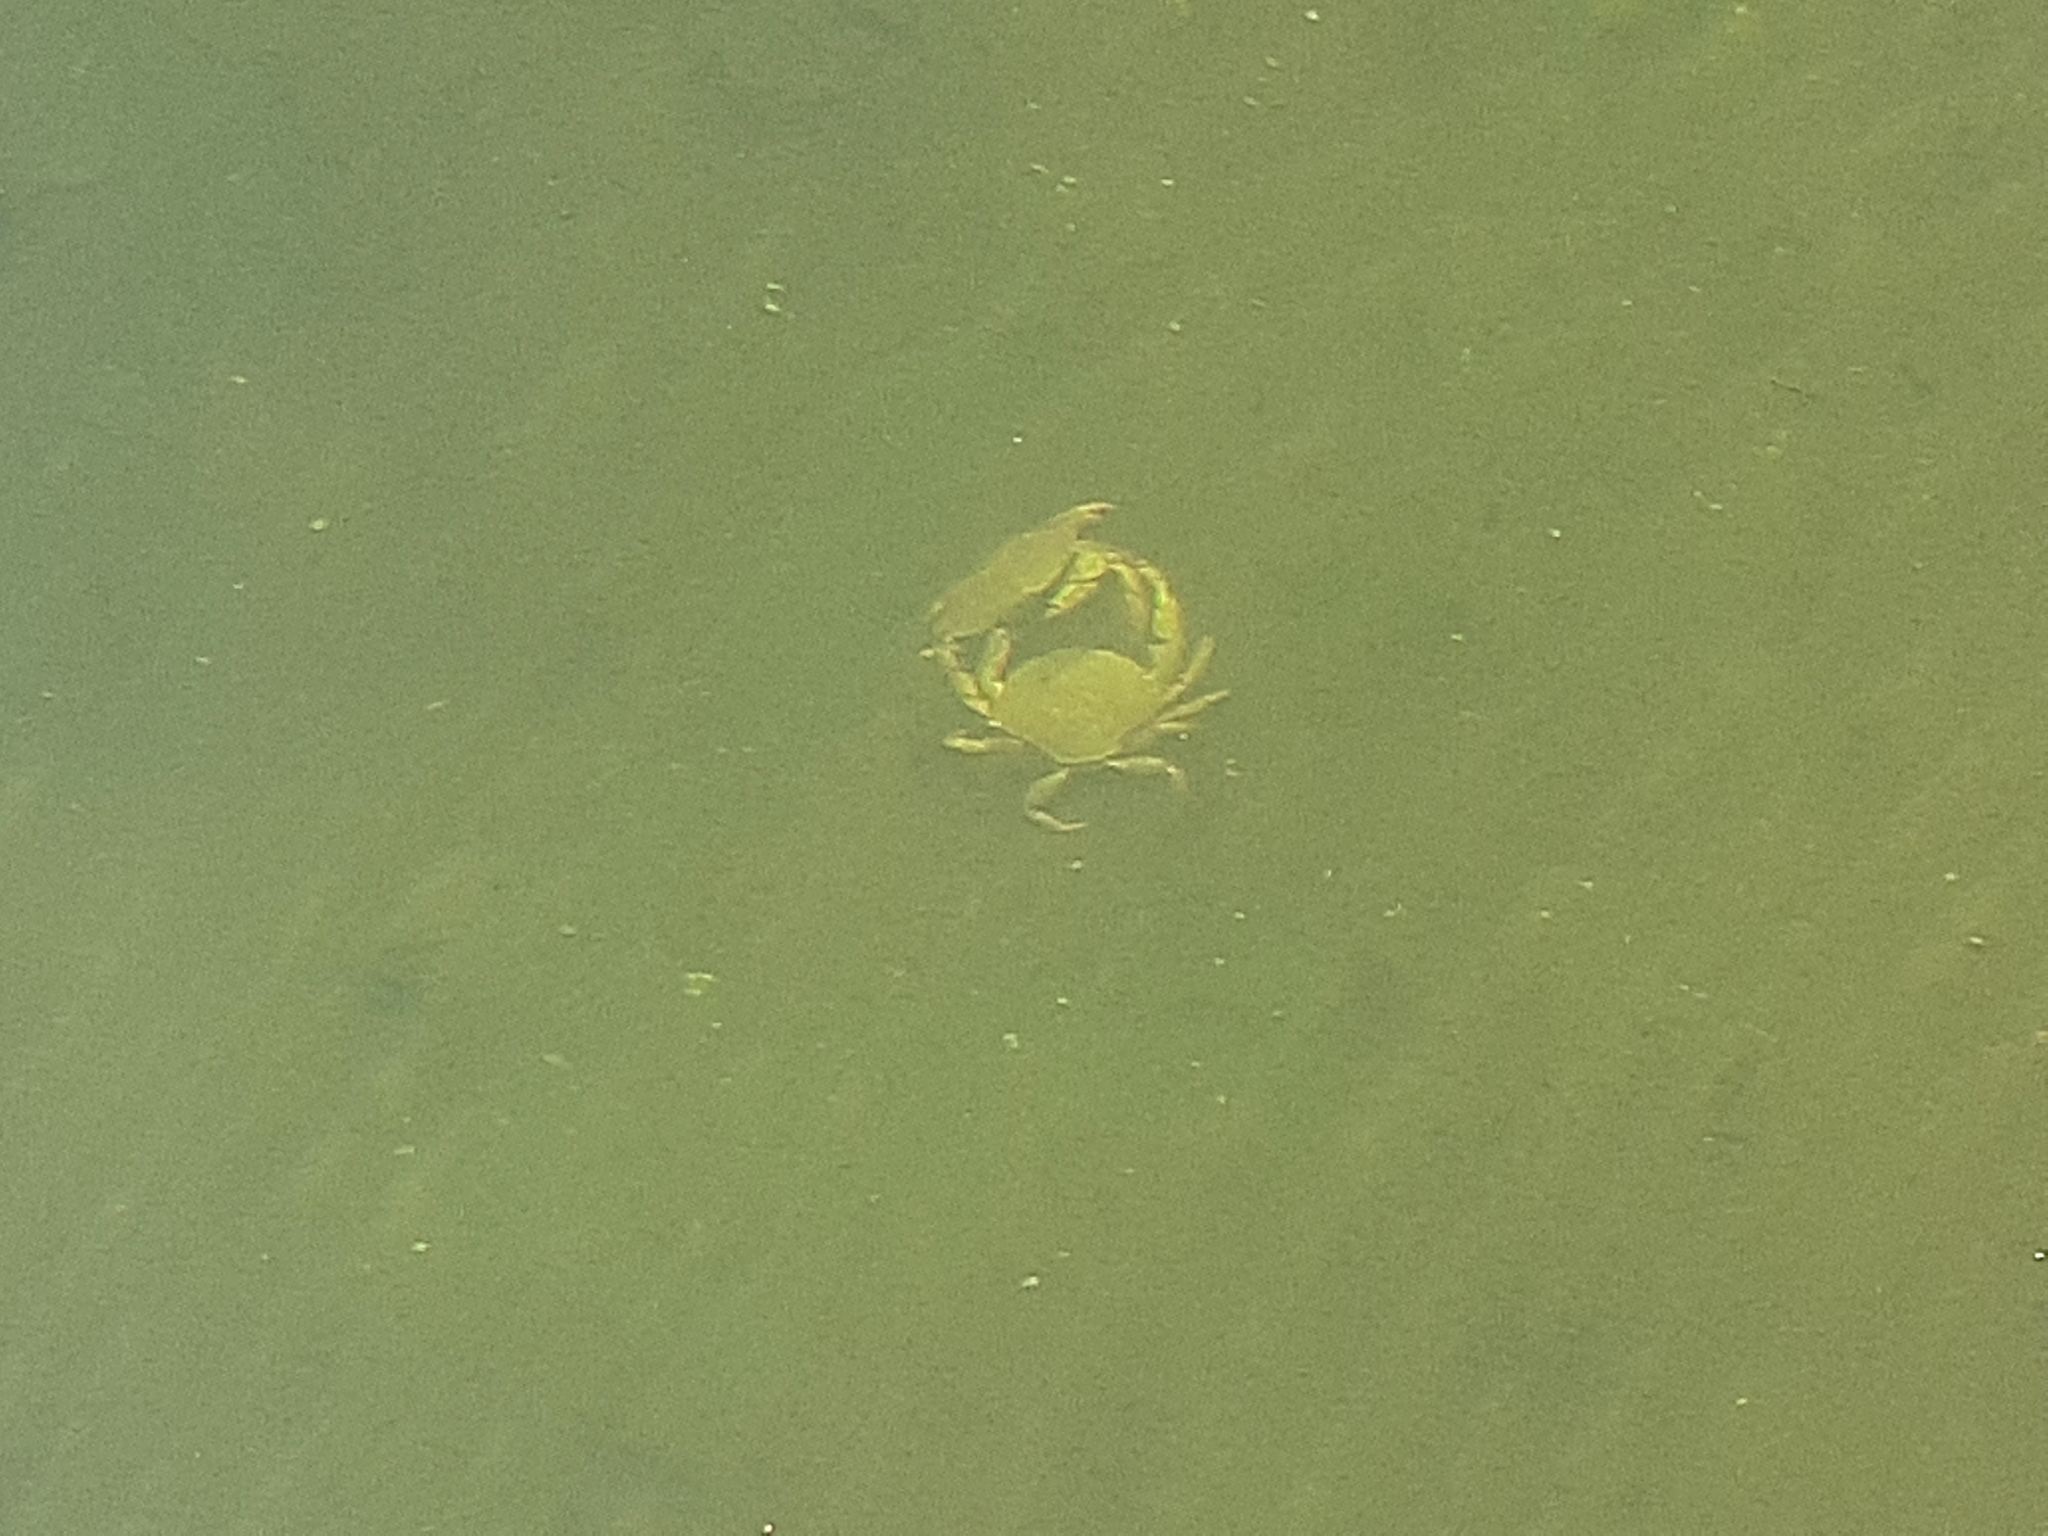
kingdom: Animalia
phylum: Arthropoda
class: Malacostraca
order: Decapoda
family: Cancridae
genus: Cancer
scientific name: Cancer irroratus
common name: Atlantic rock crab
